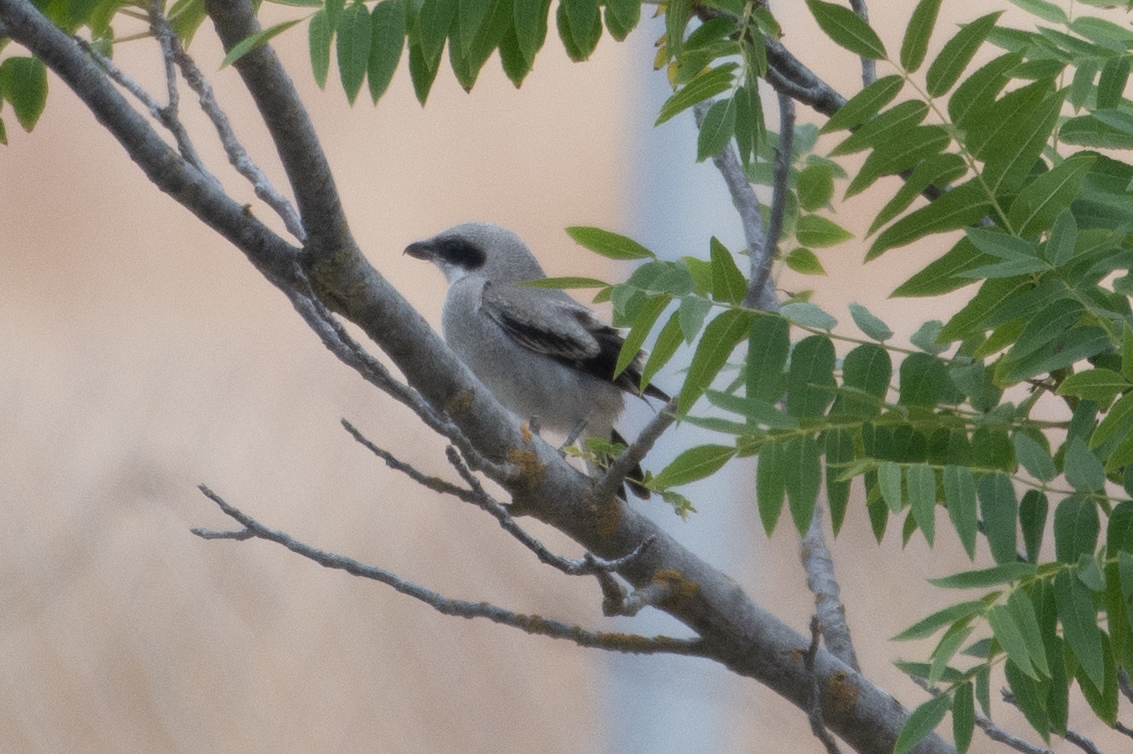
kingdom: Animalia
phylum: Chordata
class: Aves
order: Passeriformes
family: Laniidae
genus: Lanius
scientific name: Lanius ludovicianus
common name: Loggerhead shrike
